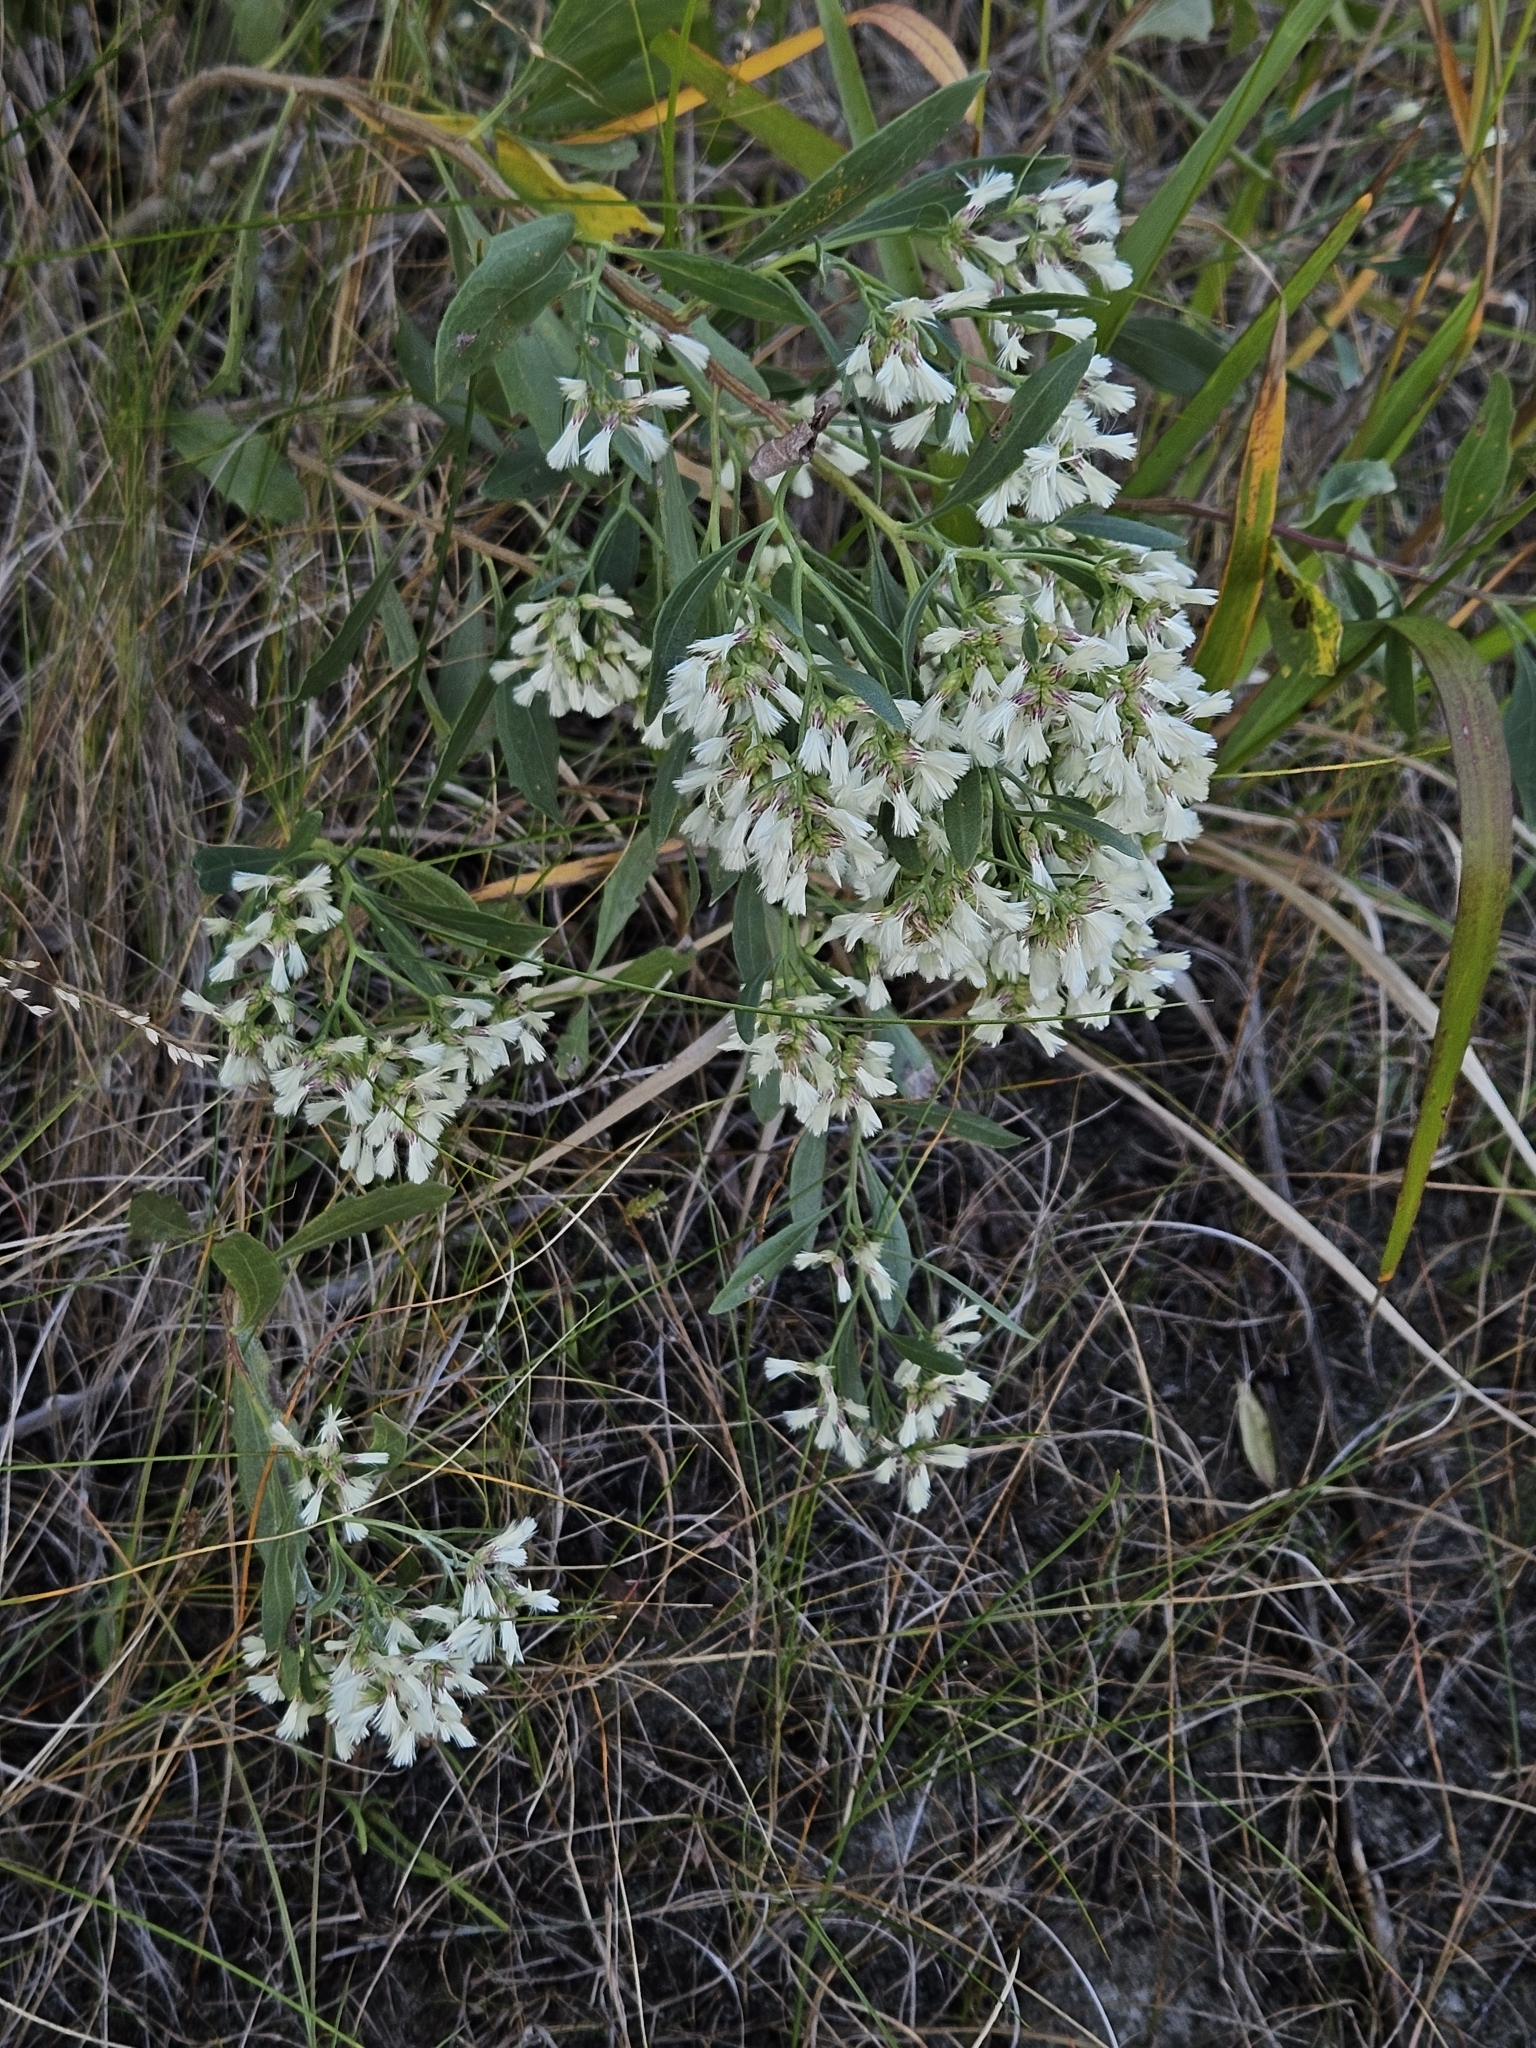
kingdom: Plantae
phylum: Tracheophyta
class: Magnoliopsida
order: Asterales
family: Asteraceae
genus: Baccharis
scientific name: Baccharis halimifolia
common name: Eastern baccharis
